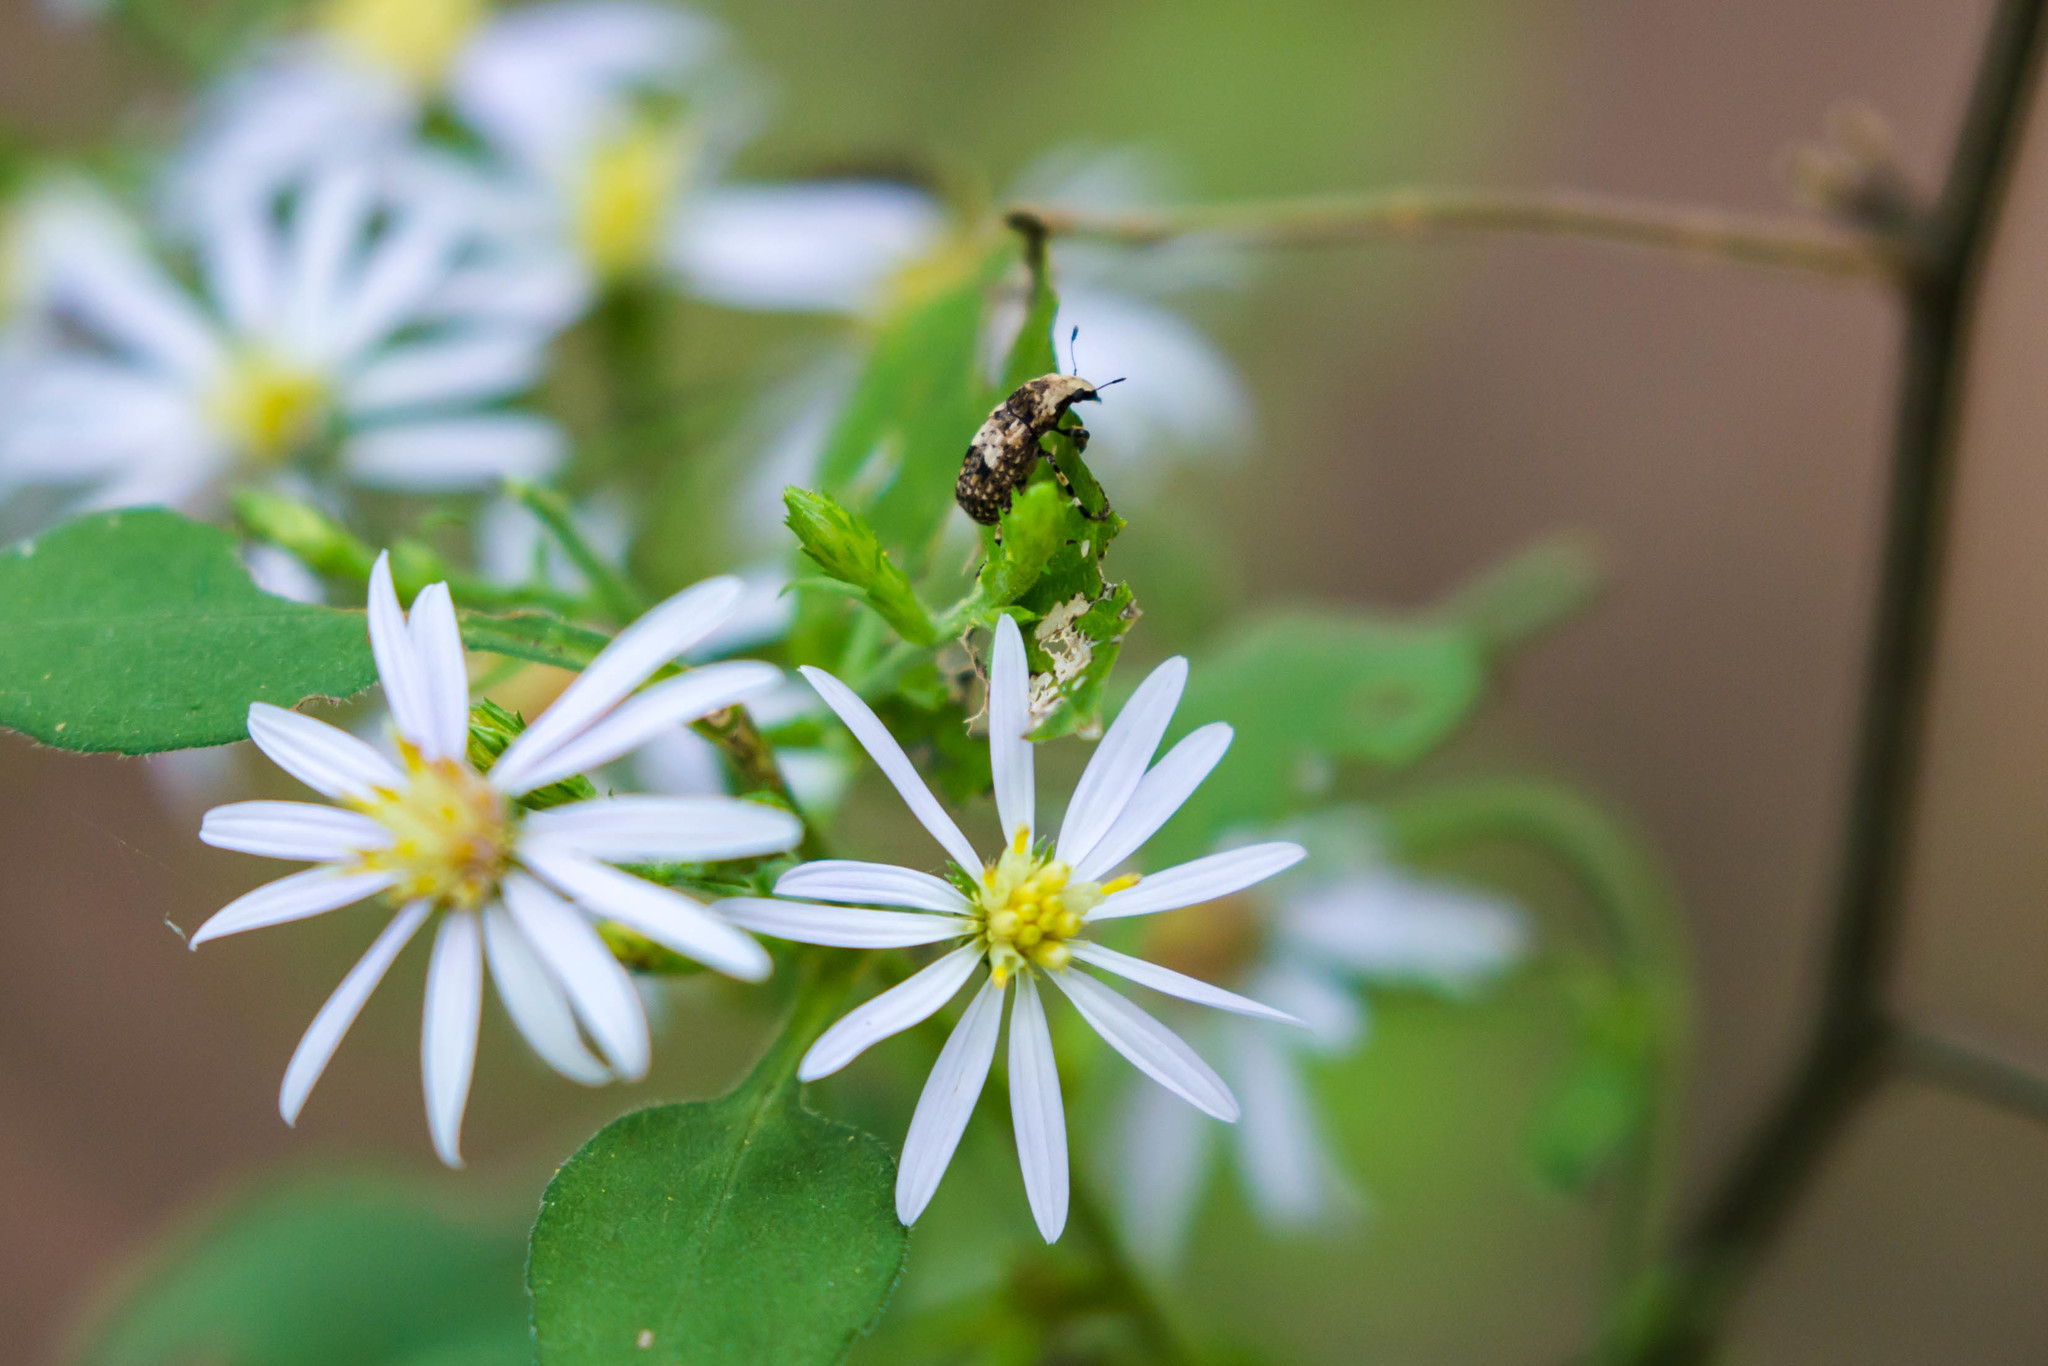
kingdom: Animalia
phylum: Arthropoda
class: Insecta
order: Coleoptera
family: Anthribidae
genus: Euparius
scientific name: Euparius marmoreus
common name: Marbled fungus weevil
